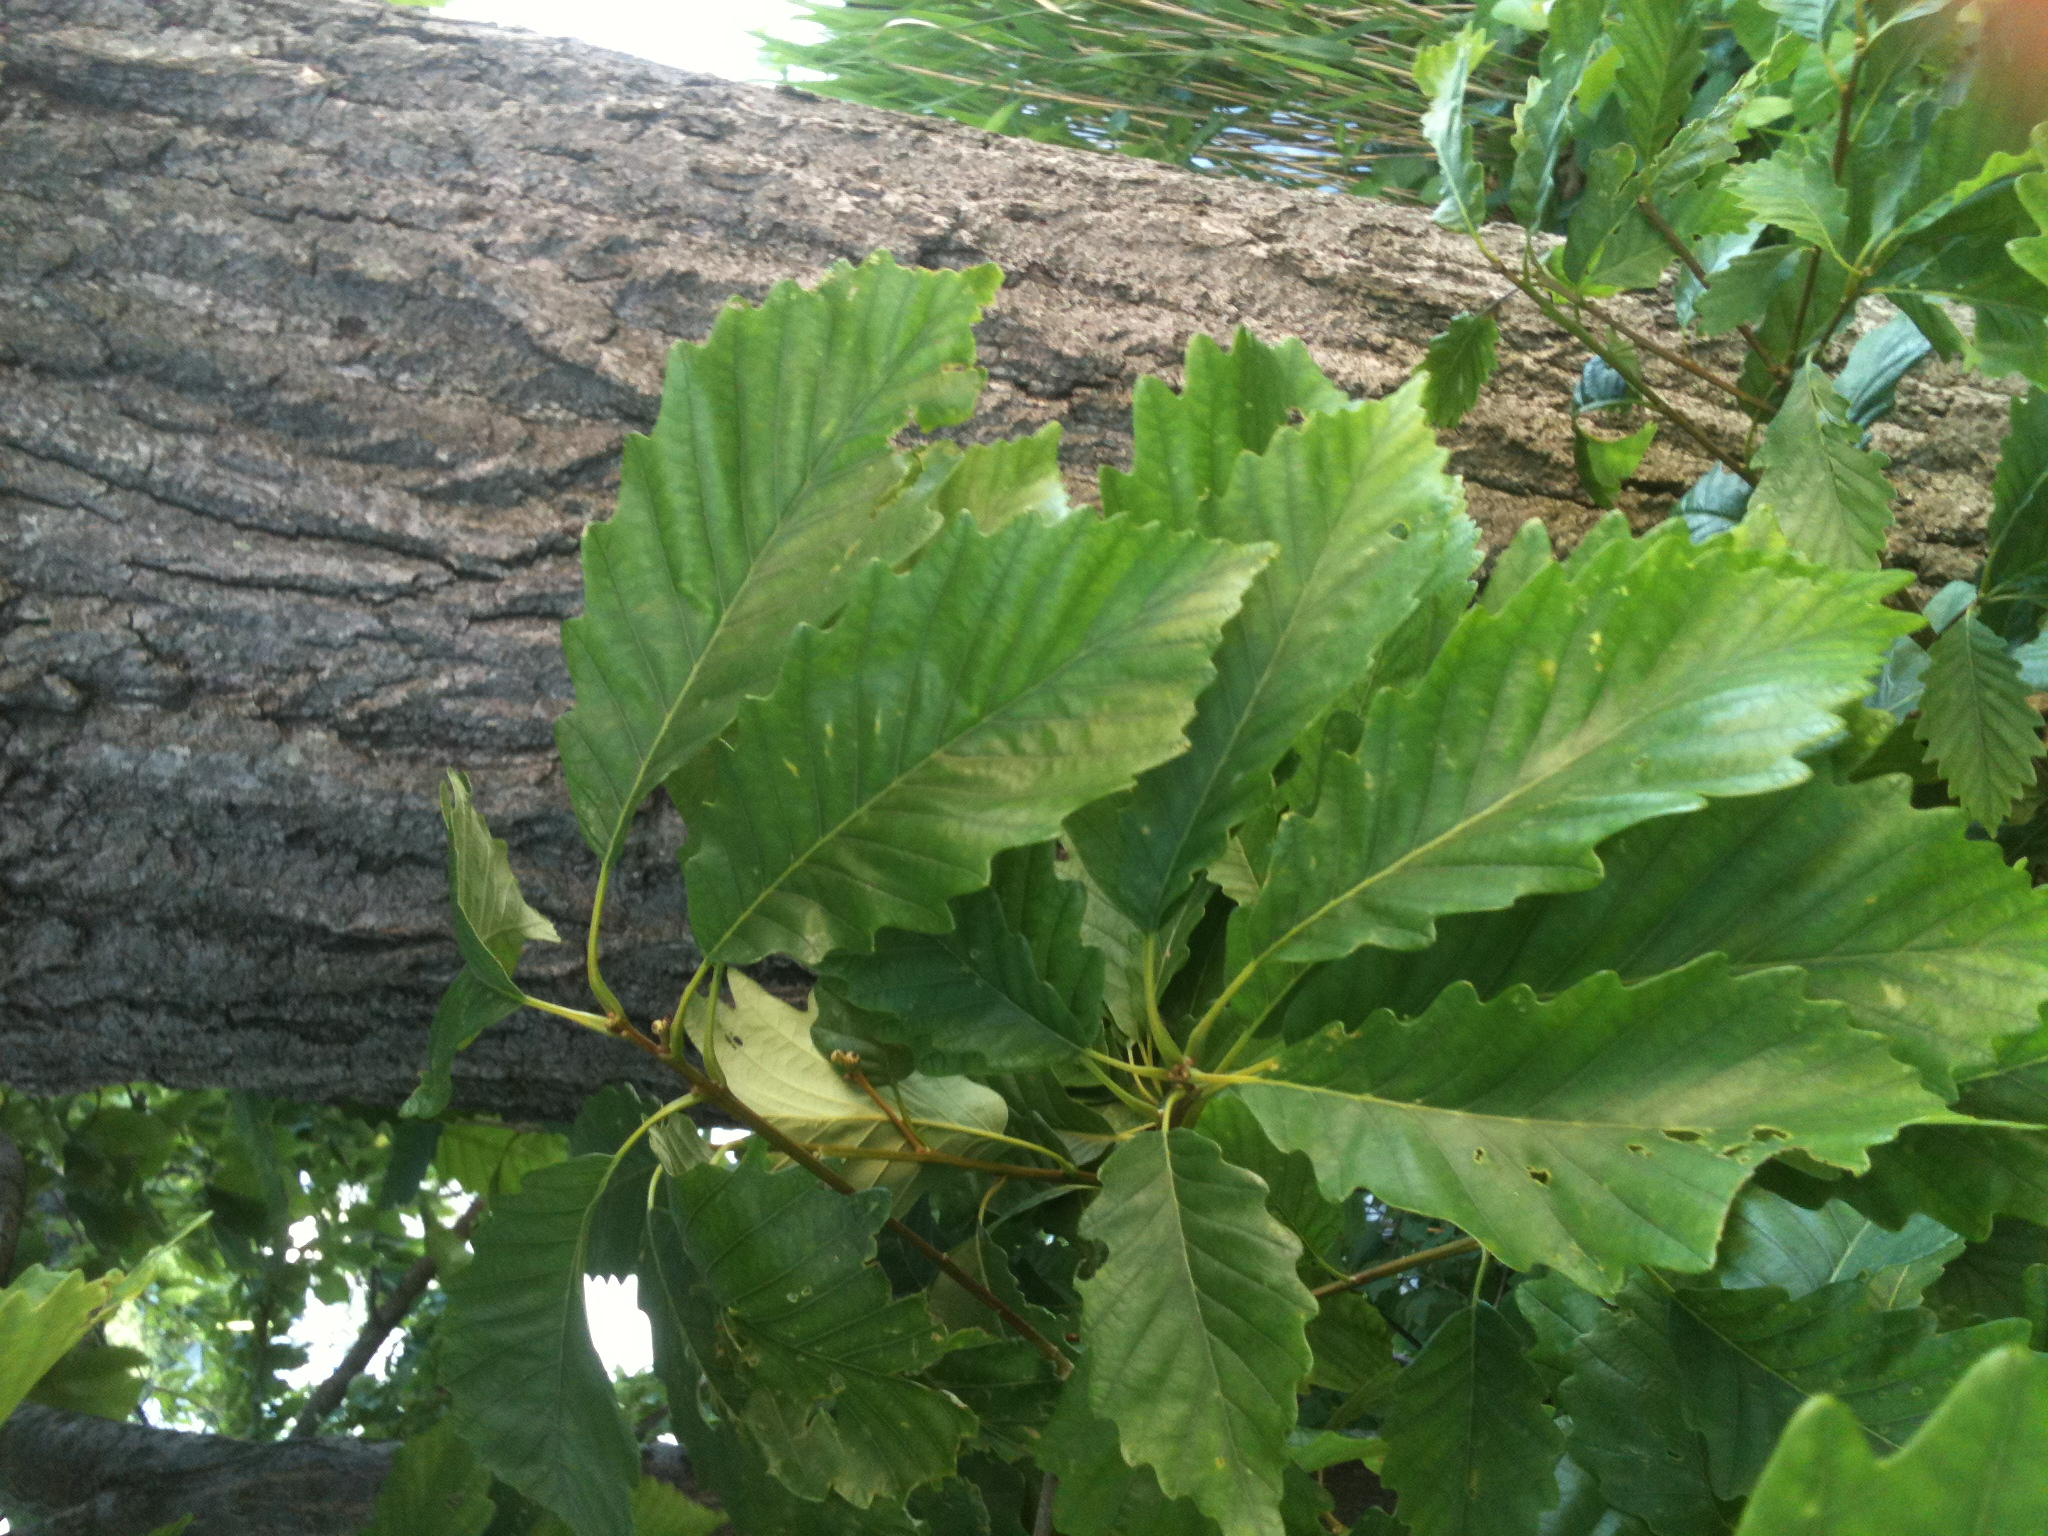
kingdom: Plantae
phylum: Tracheophyta
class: Magnoliopsida
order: Fagales
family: Fagaceae
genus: Quercus
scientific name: Quercus montana
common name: Chestnut oak
